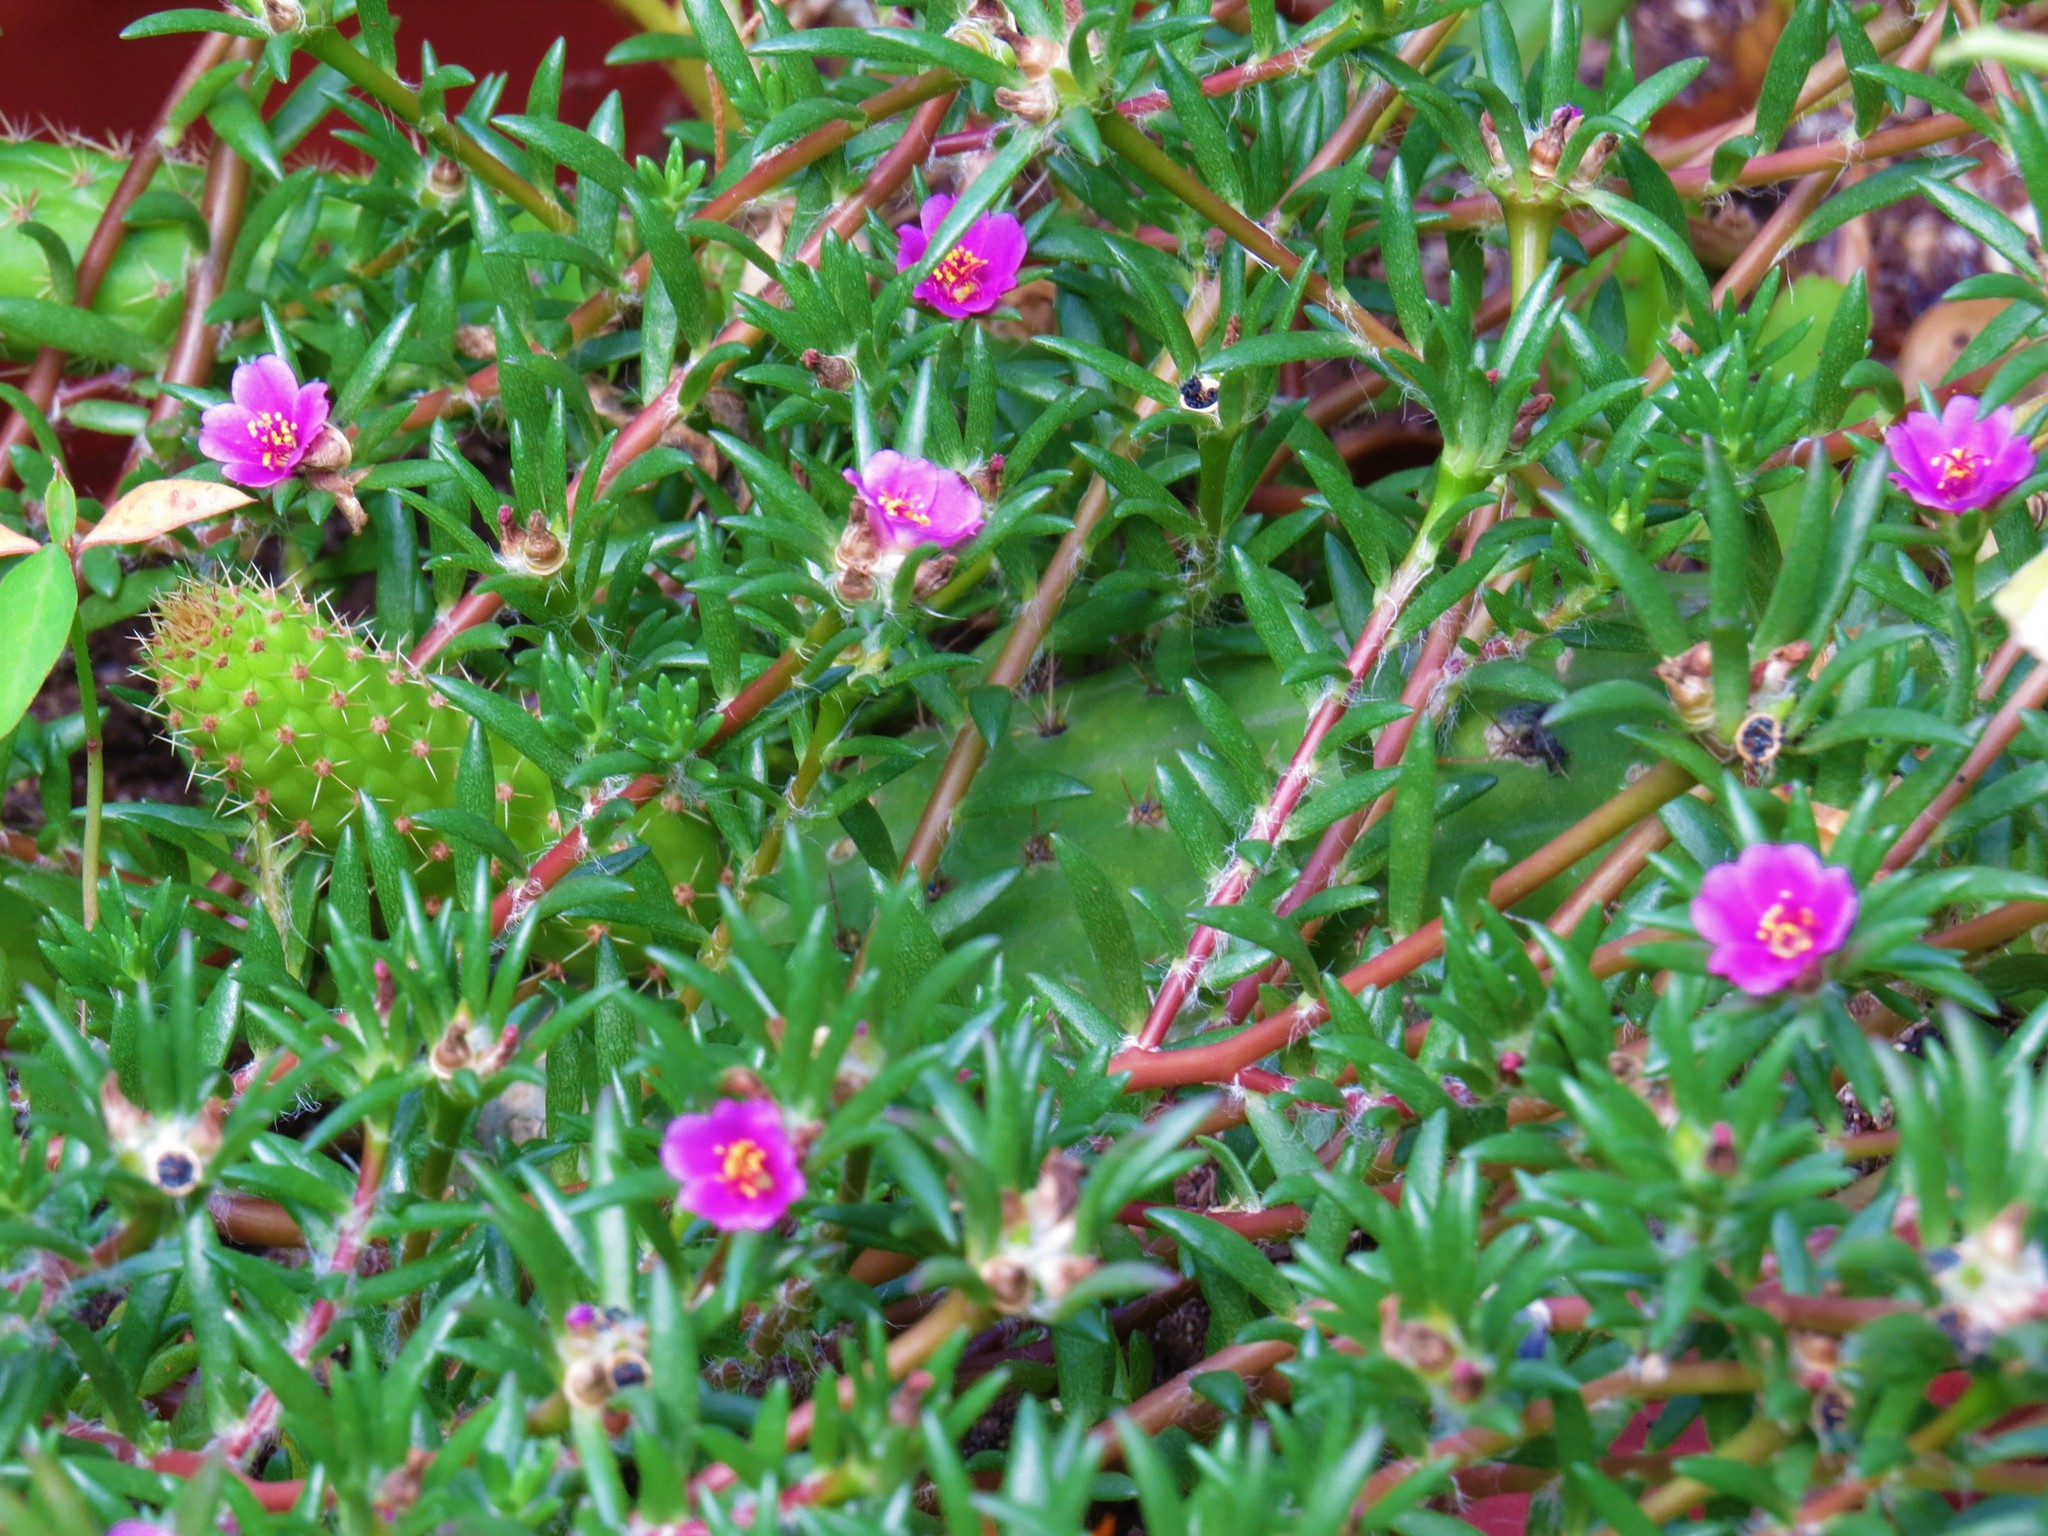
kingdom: Plantae
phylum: Tracheophyta
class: Magnoliopsida
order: Caryophyllales
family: Portulacaceae
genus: Portulaca
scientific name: Portulaca pilosa
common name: Kiss me quick
